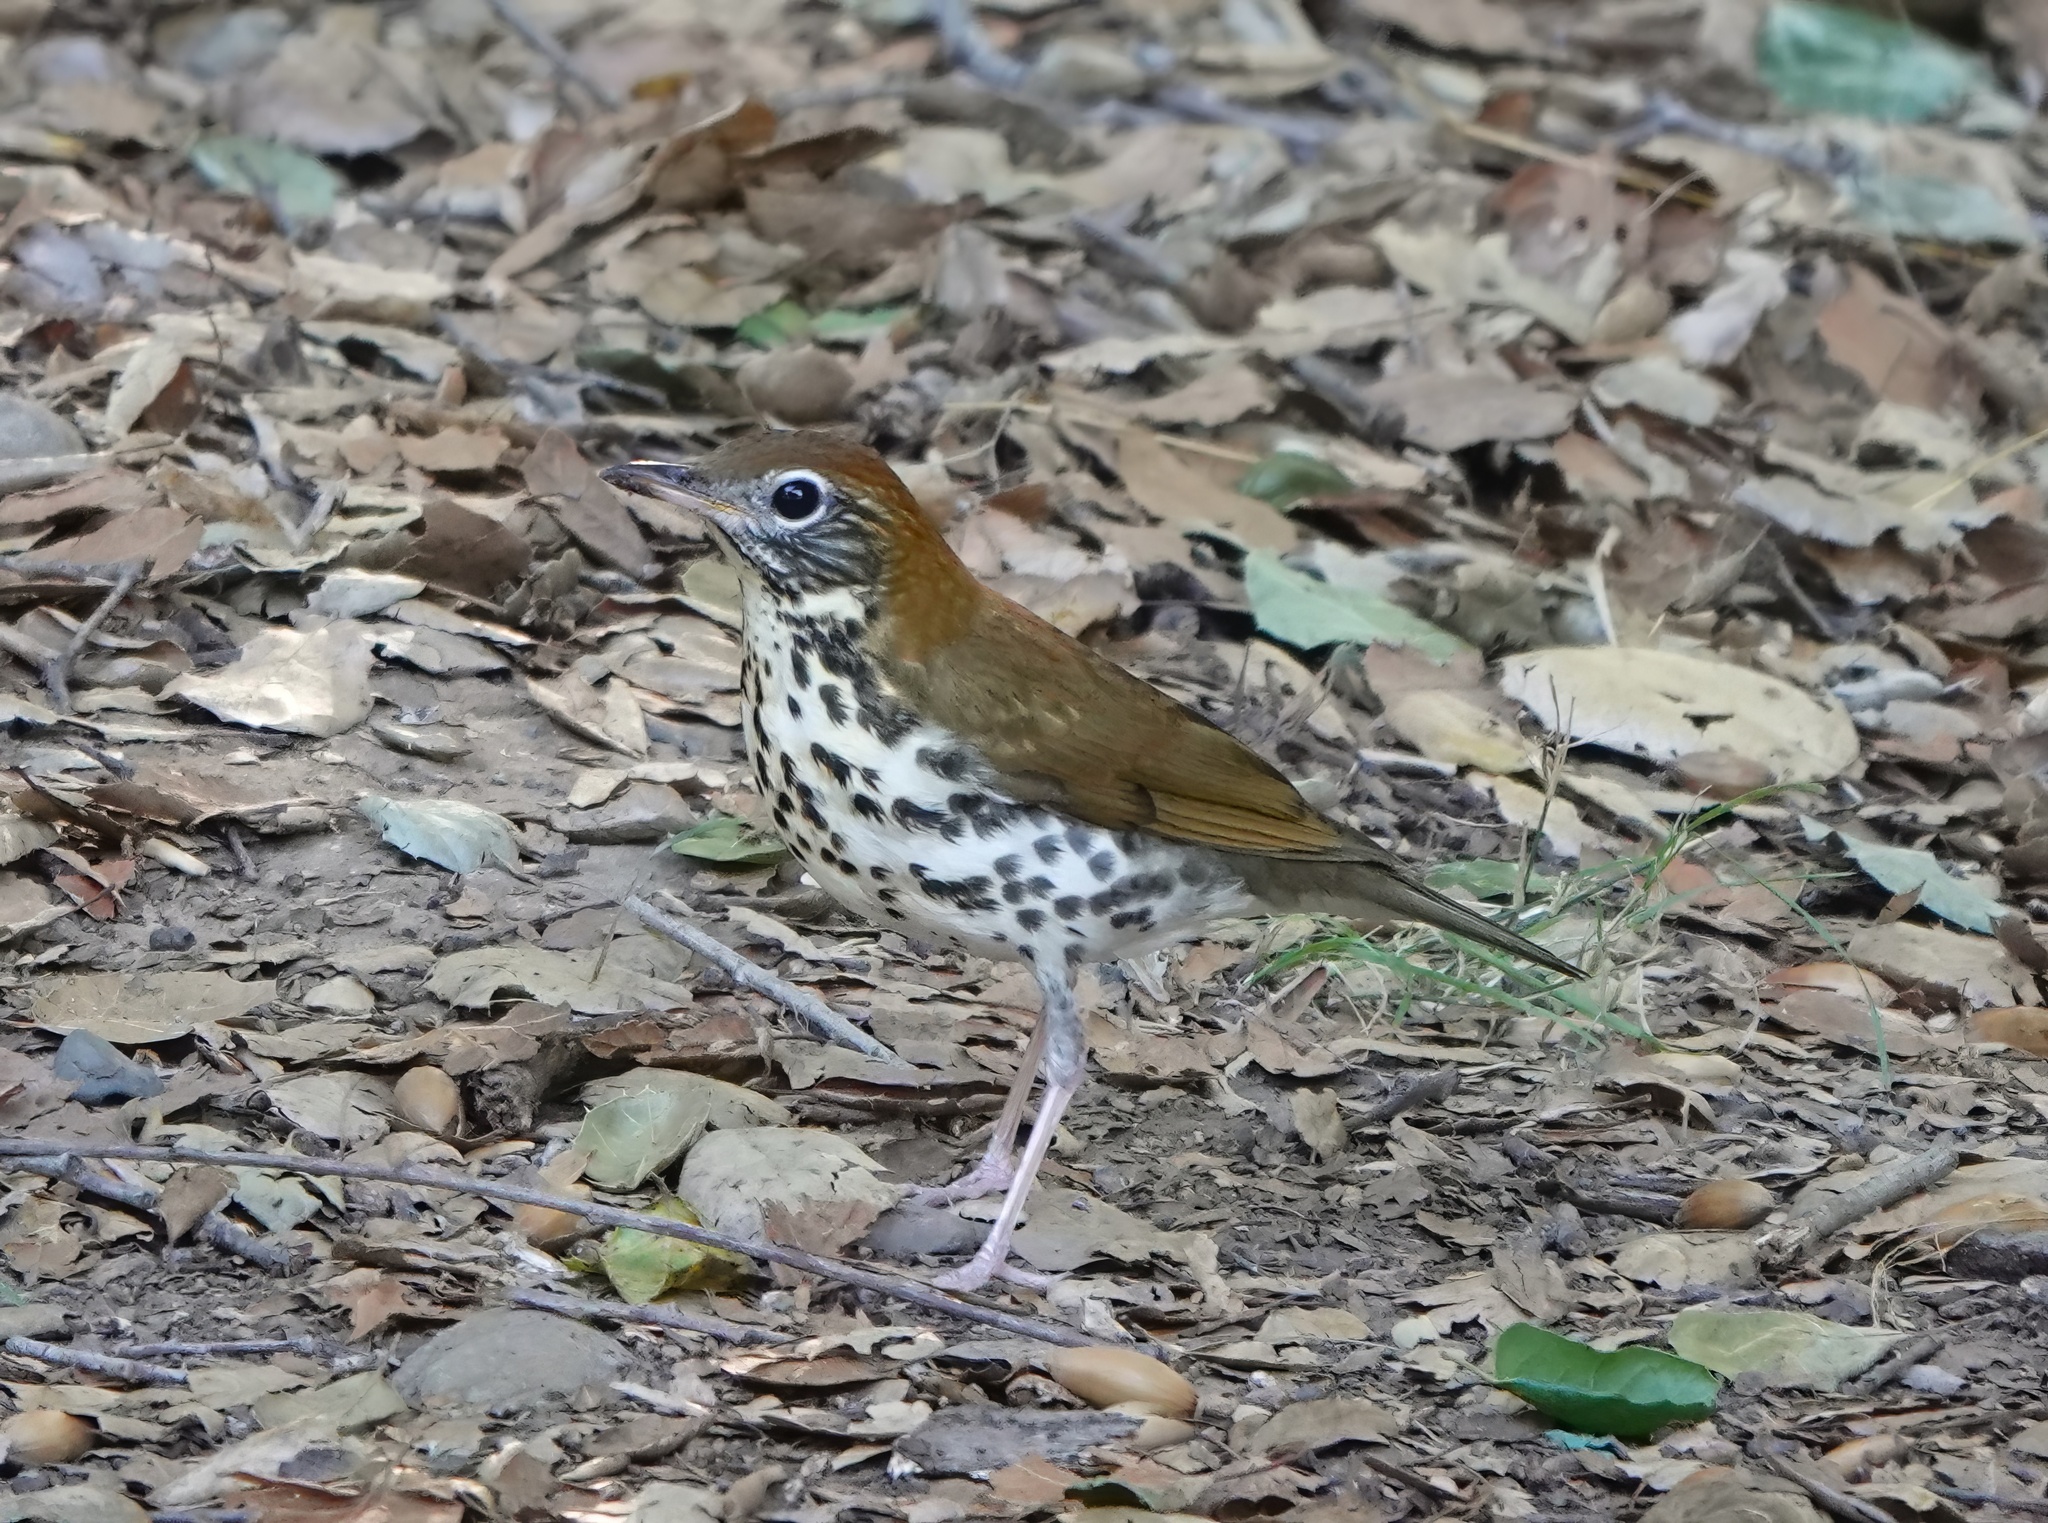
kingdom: Animalia
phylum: Chordata
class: Aves
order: Passeriformes
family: Turdidae
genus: Hylocichla
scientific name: Hylocichla mustelina
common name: Wood thrush
